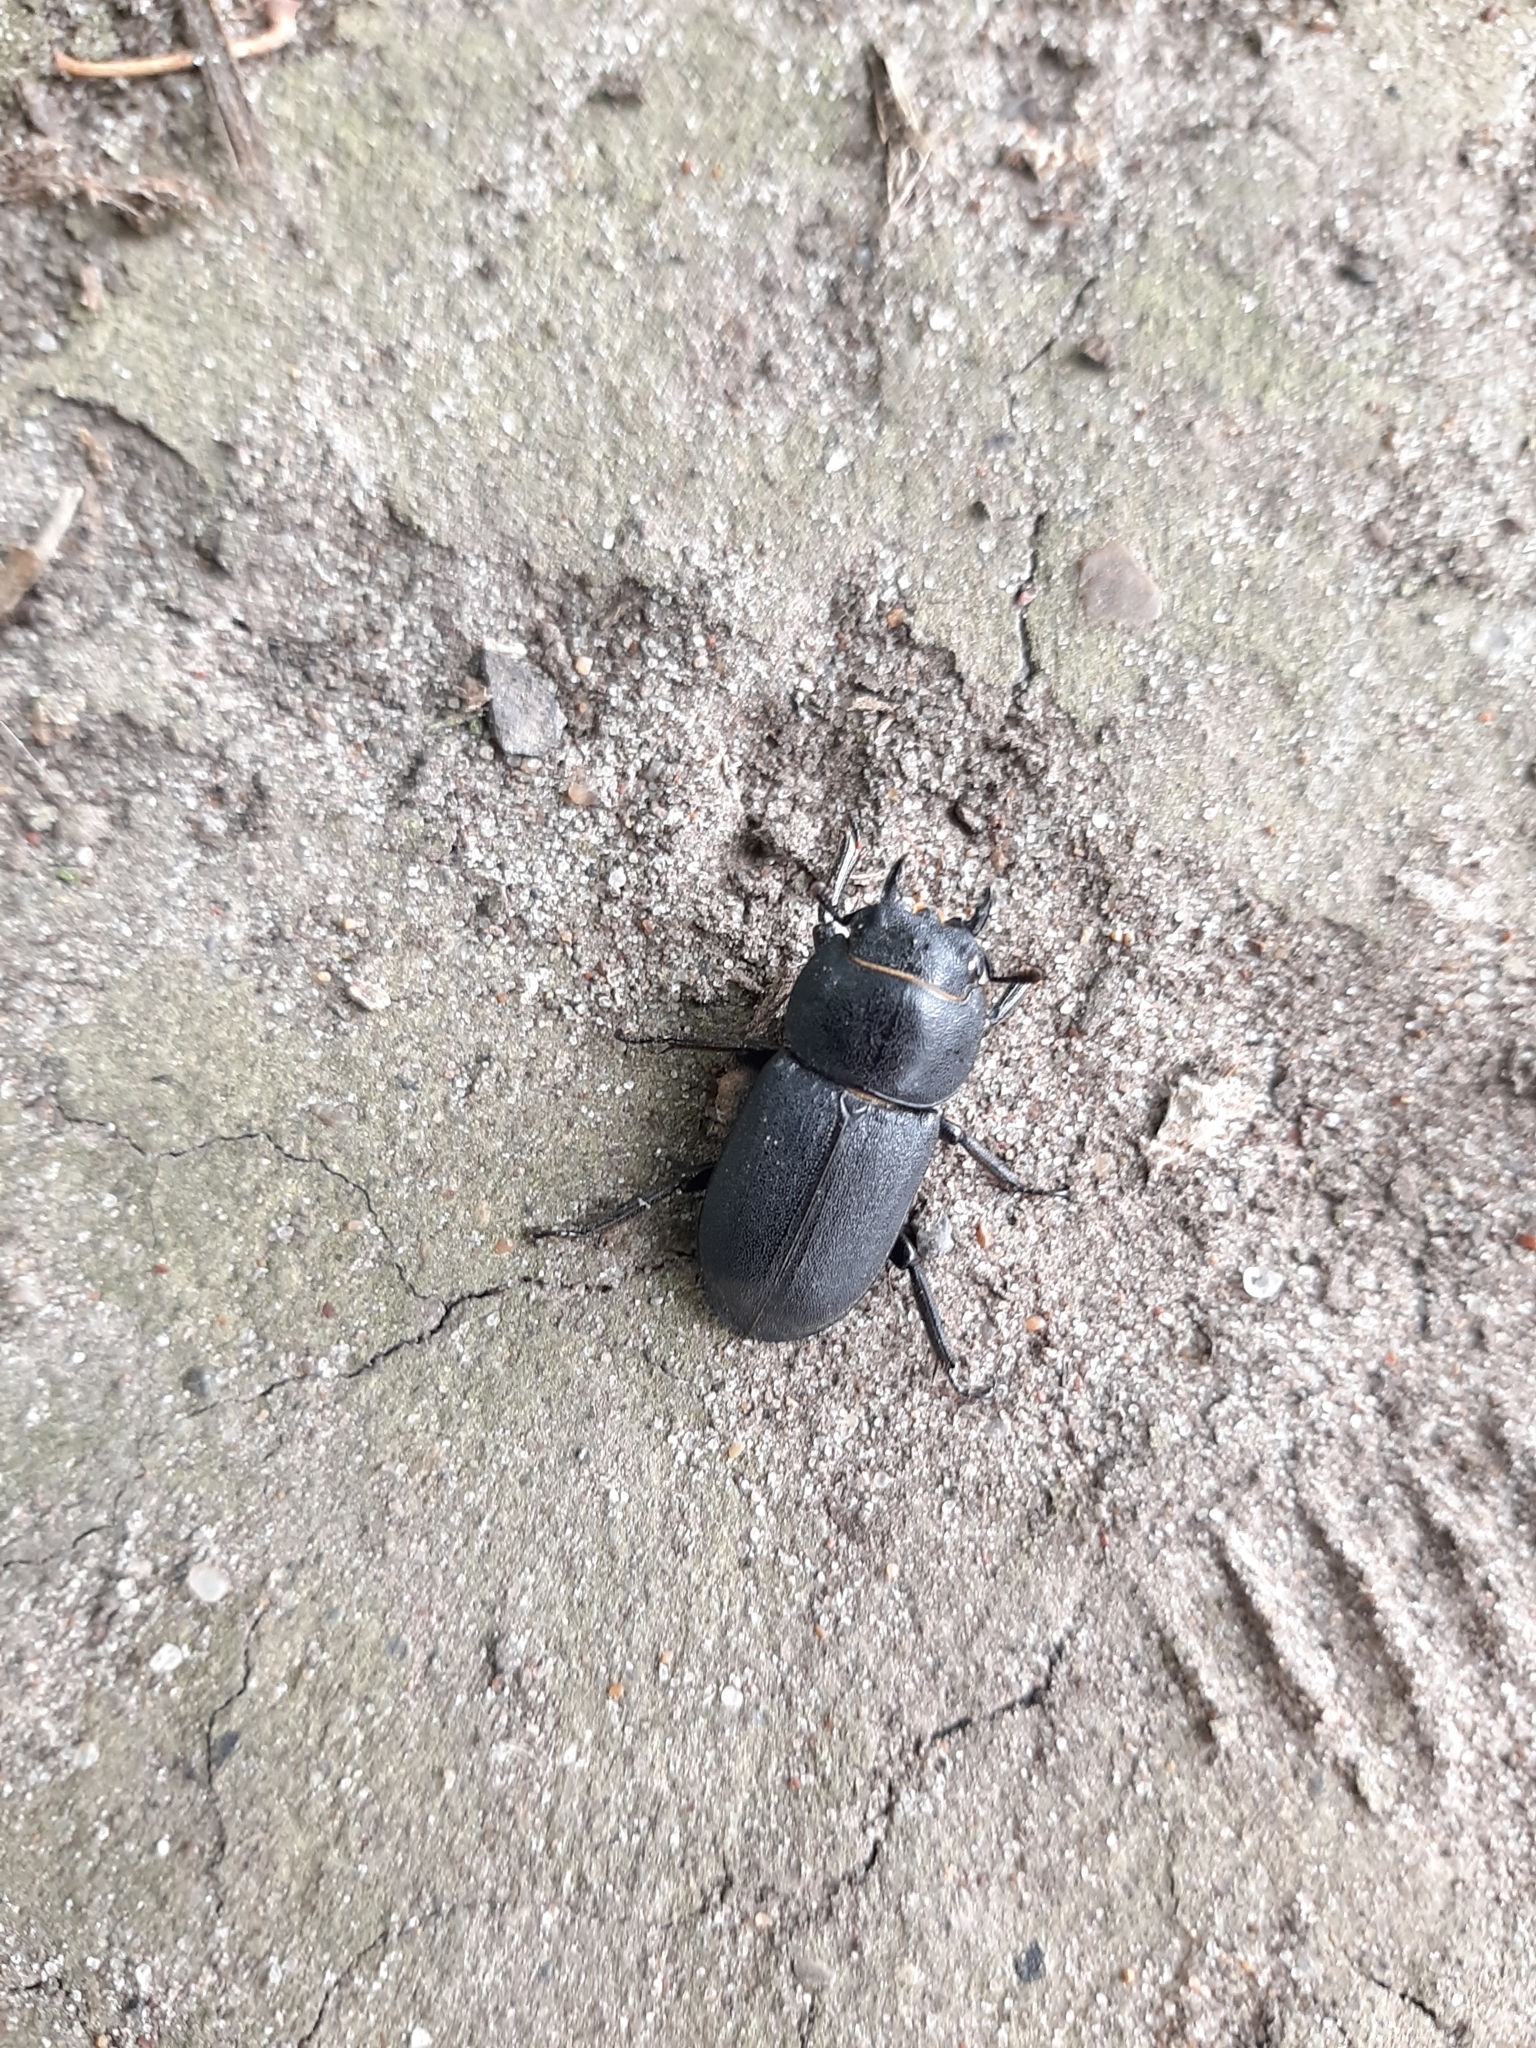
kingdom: Animalia
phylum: Arthropoda
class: Insecta
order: Coleoptera
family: Lucanidae
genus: Dorcus
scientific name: Dorcus parallelipipedus
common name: Lesser stag beetle
